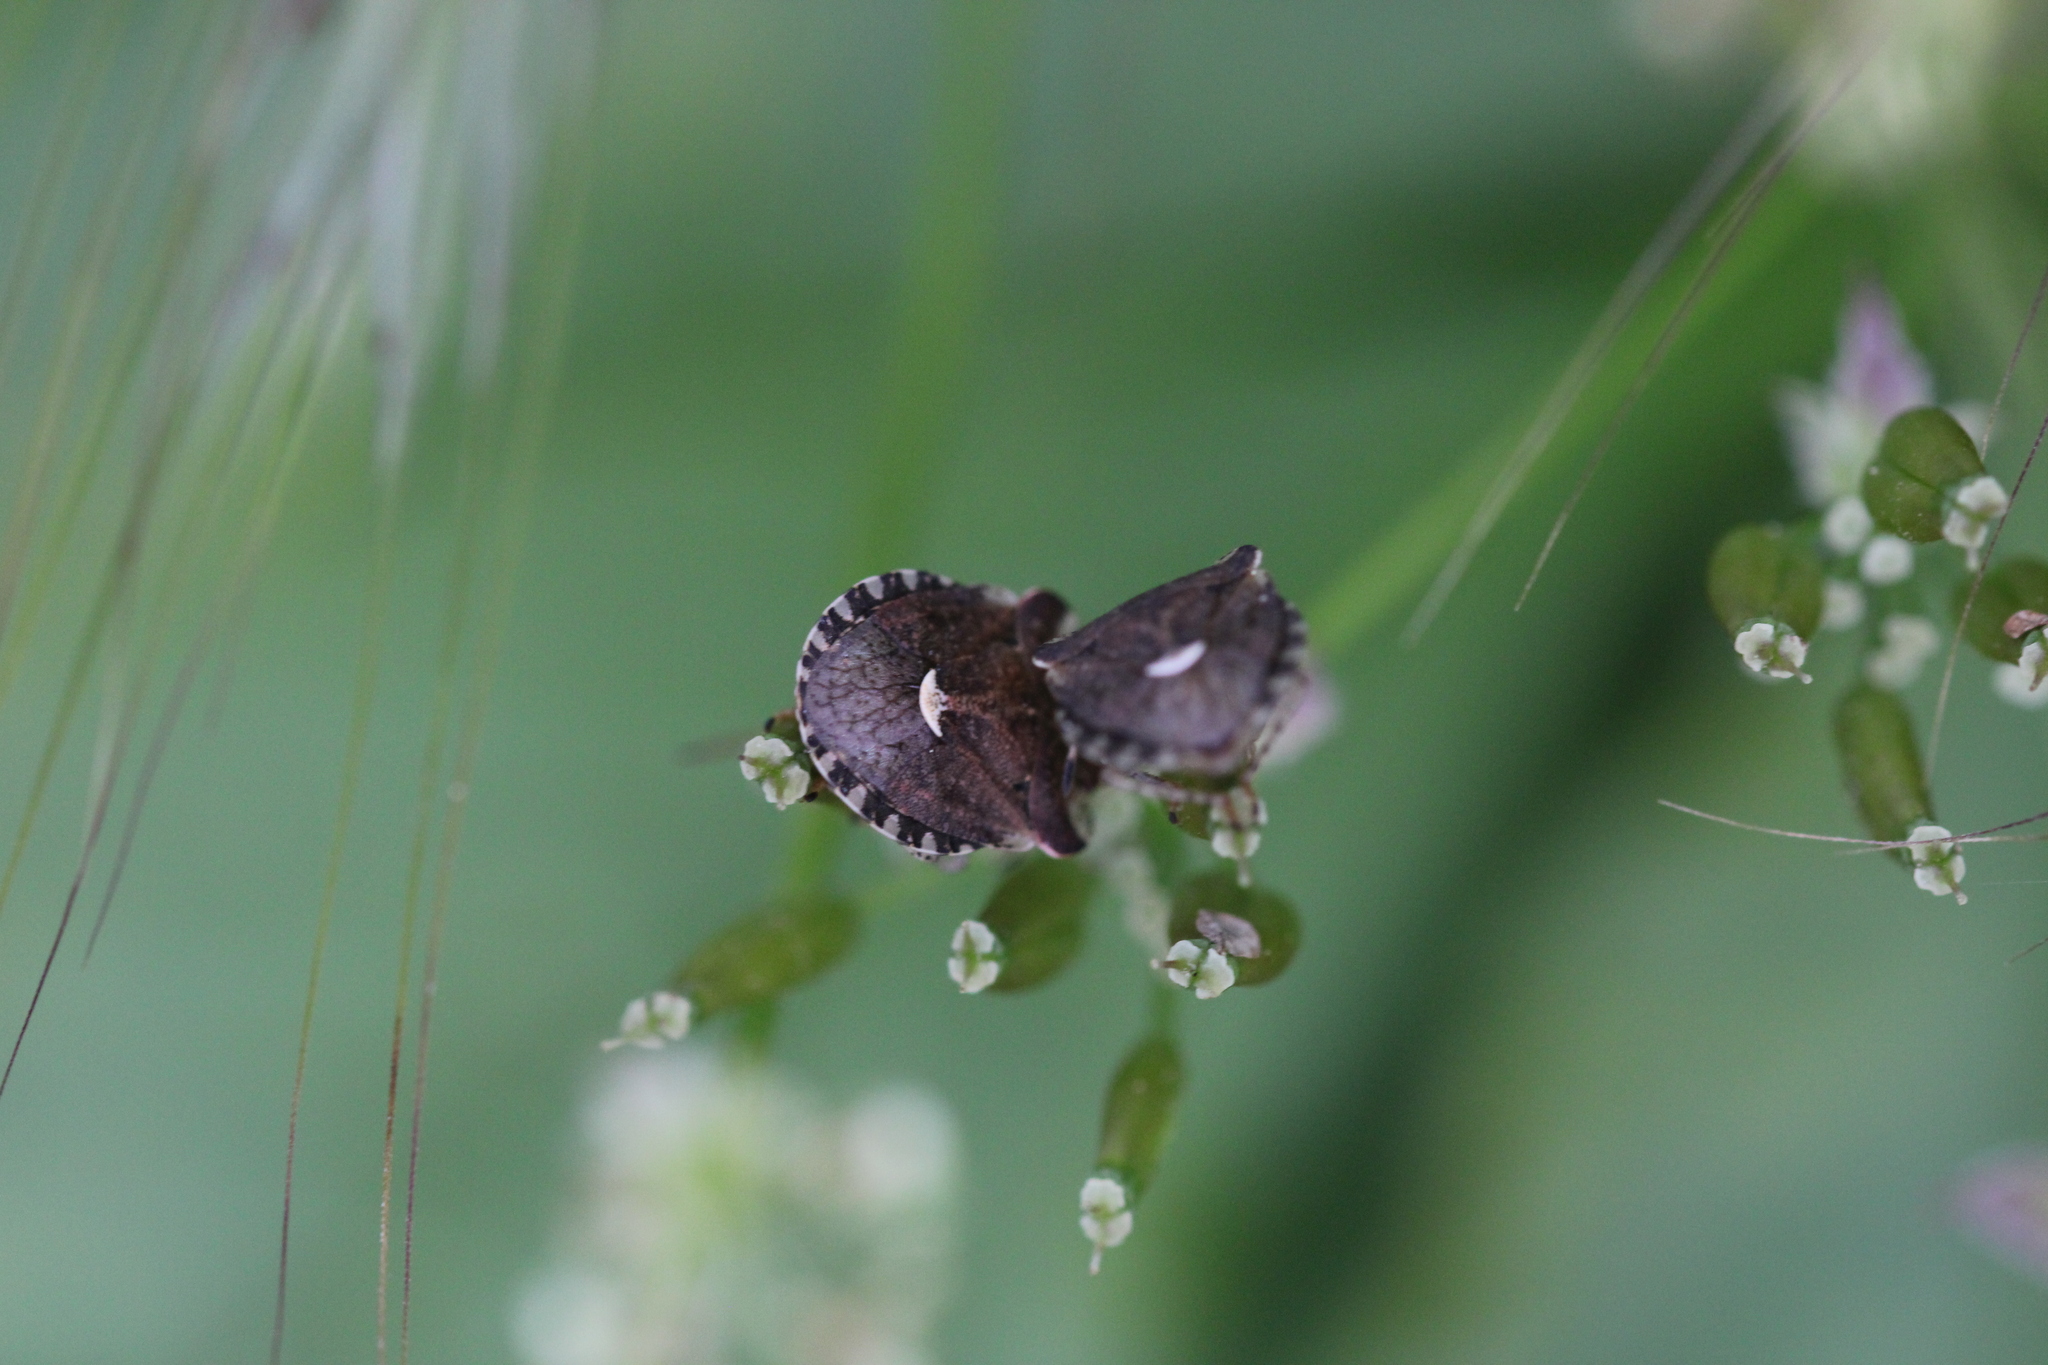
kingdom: Animalia
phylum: Arthropoda
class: Insecta
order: Hemiptera
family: Pentatomidae
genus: Dyroderes
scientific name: Dyroderes umbraculatus
